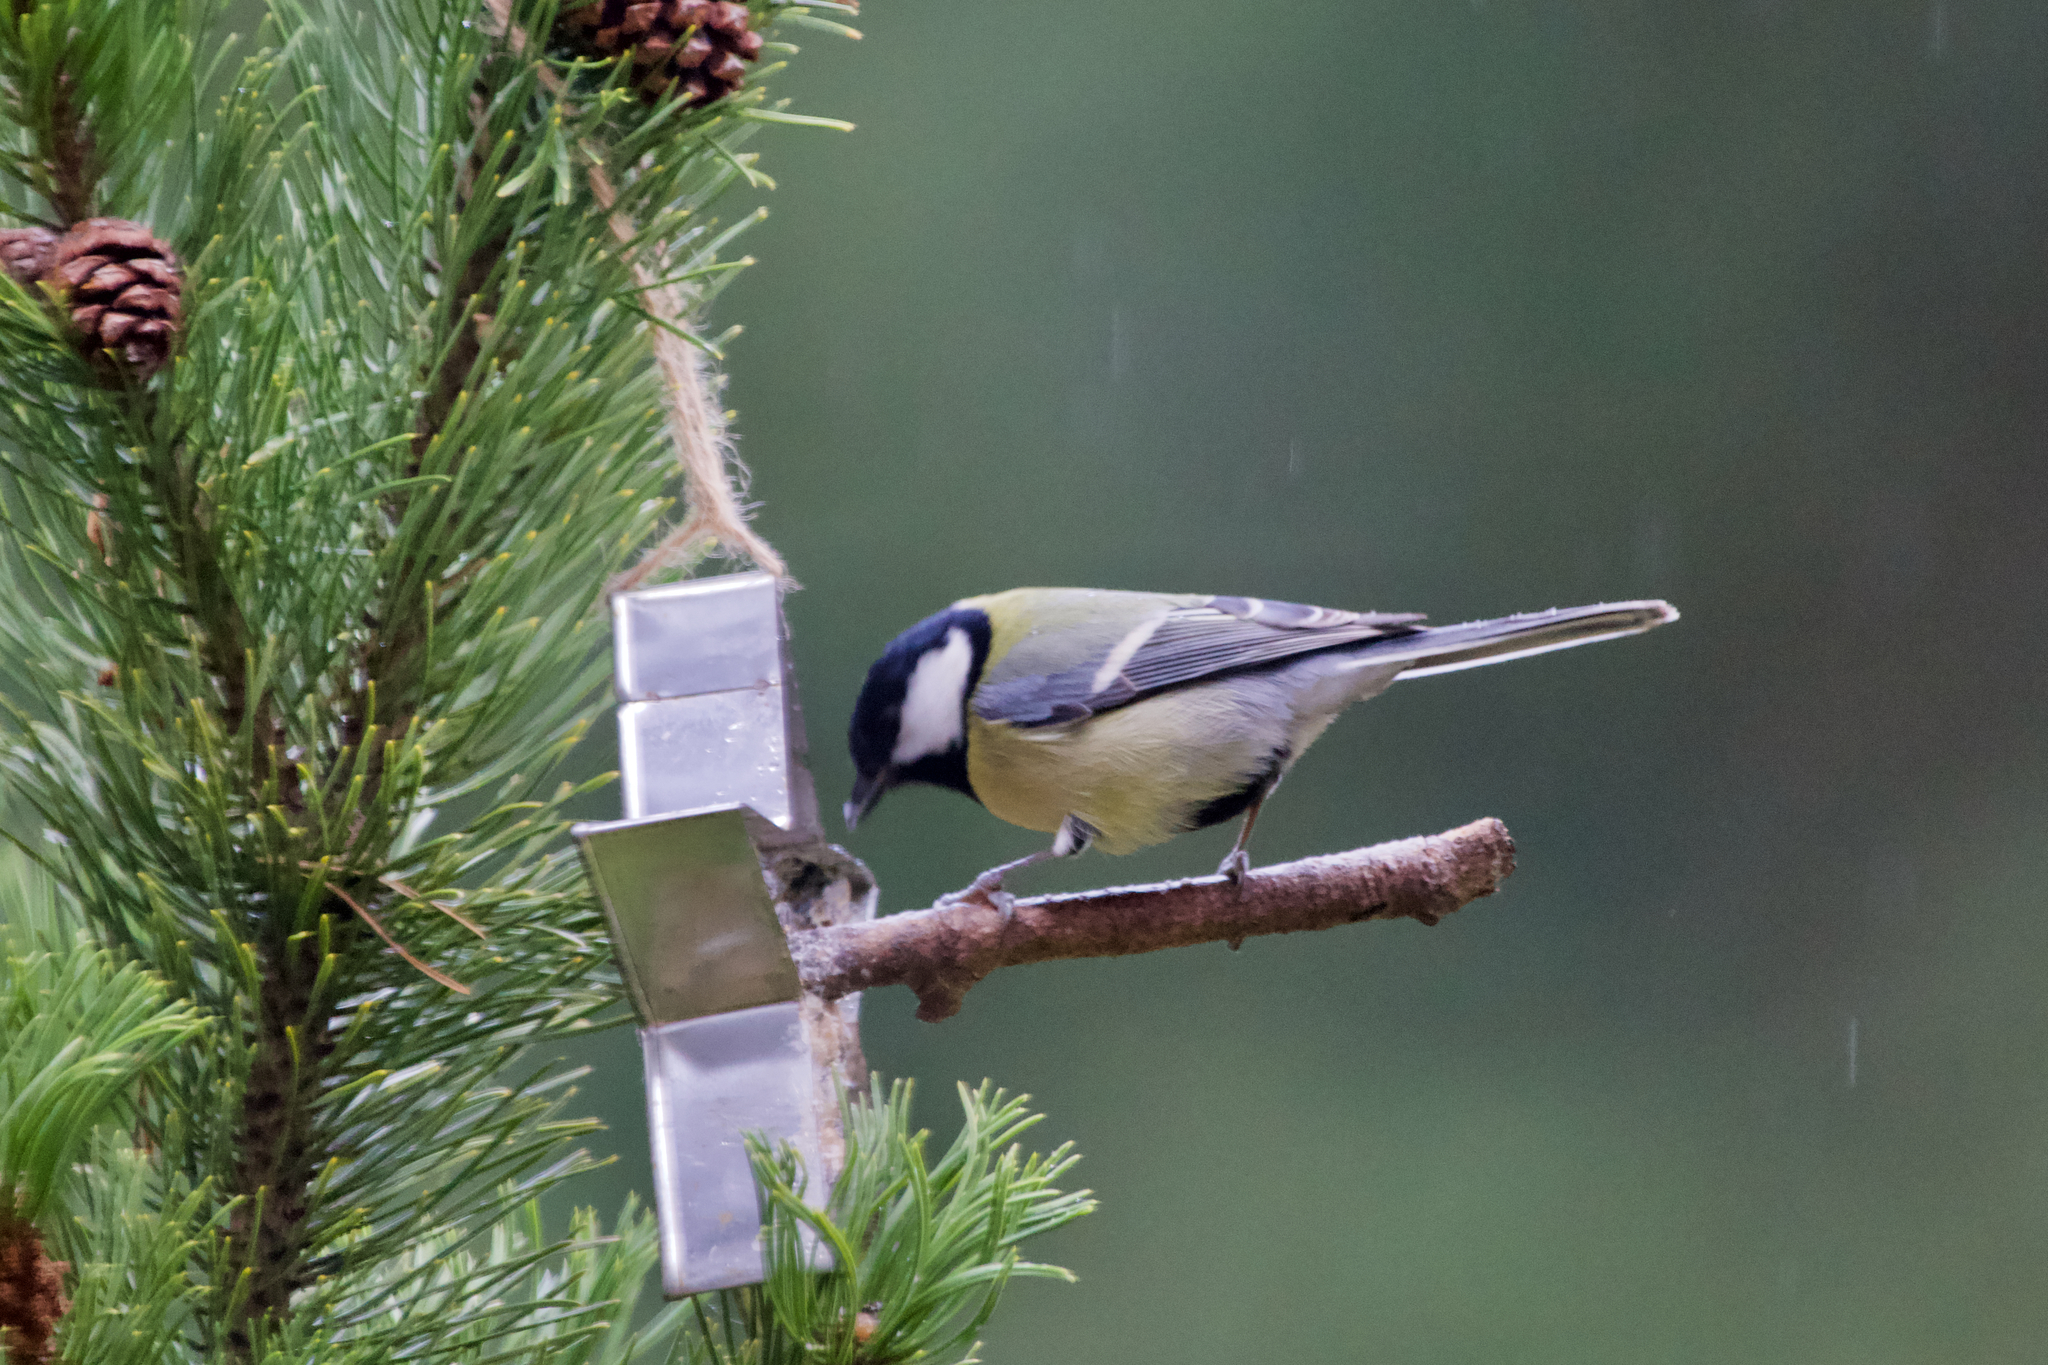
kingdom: Animalia
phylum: Chordata
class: Aves
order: Passeriformes
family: Paridae
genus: Parus
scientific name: Parus major
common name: Great tit
